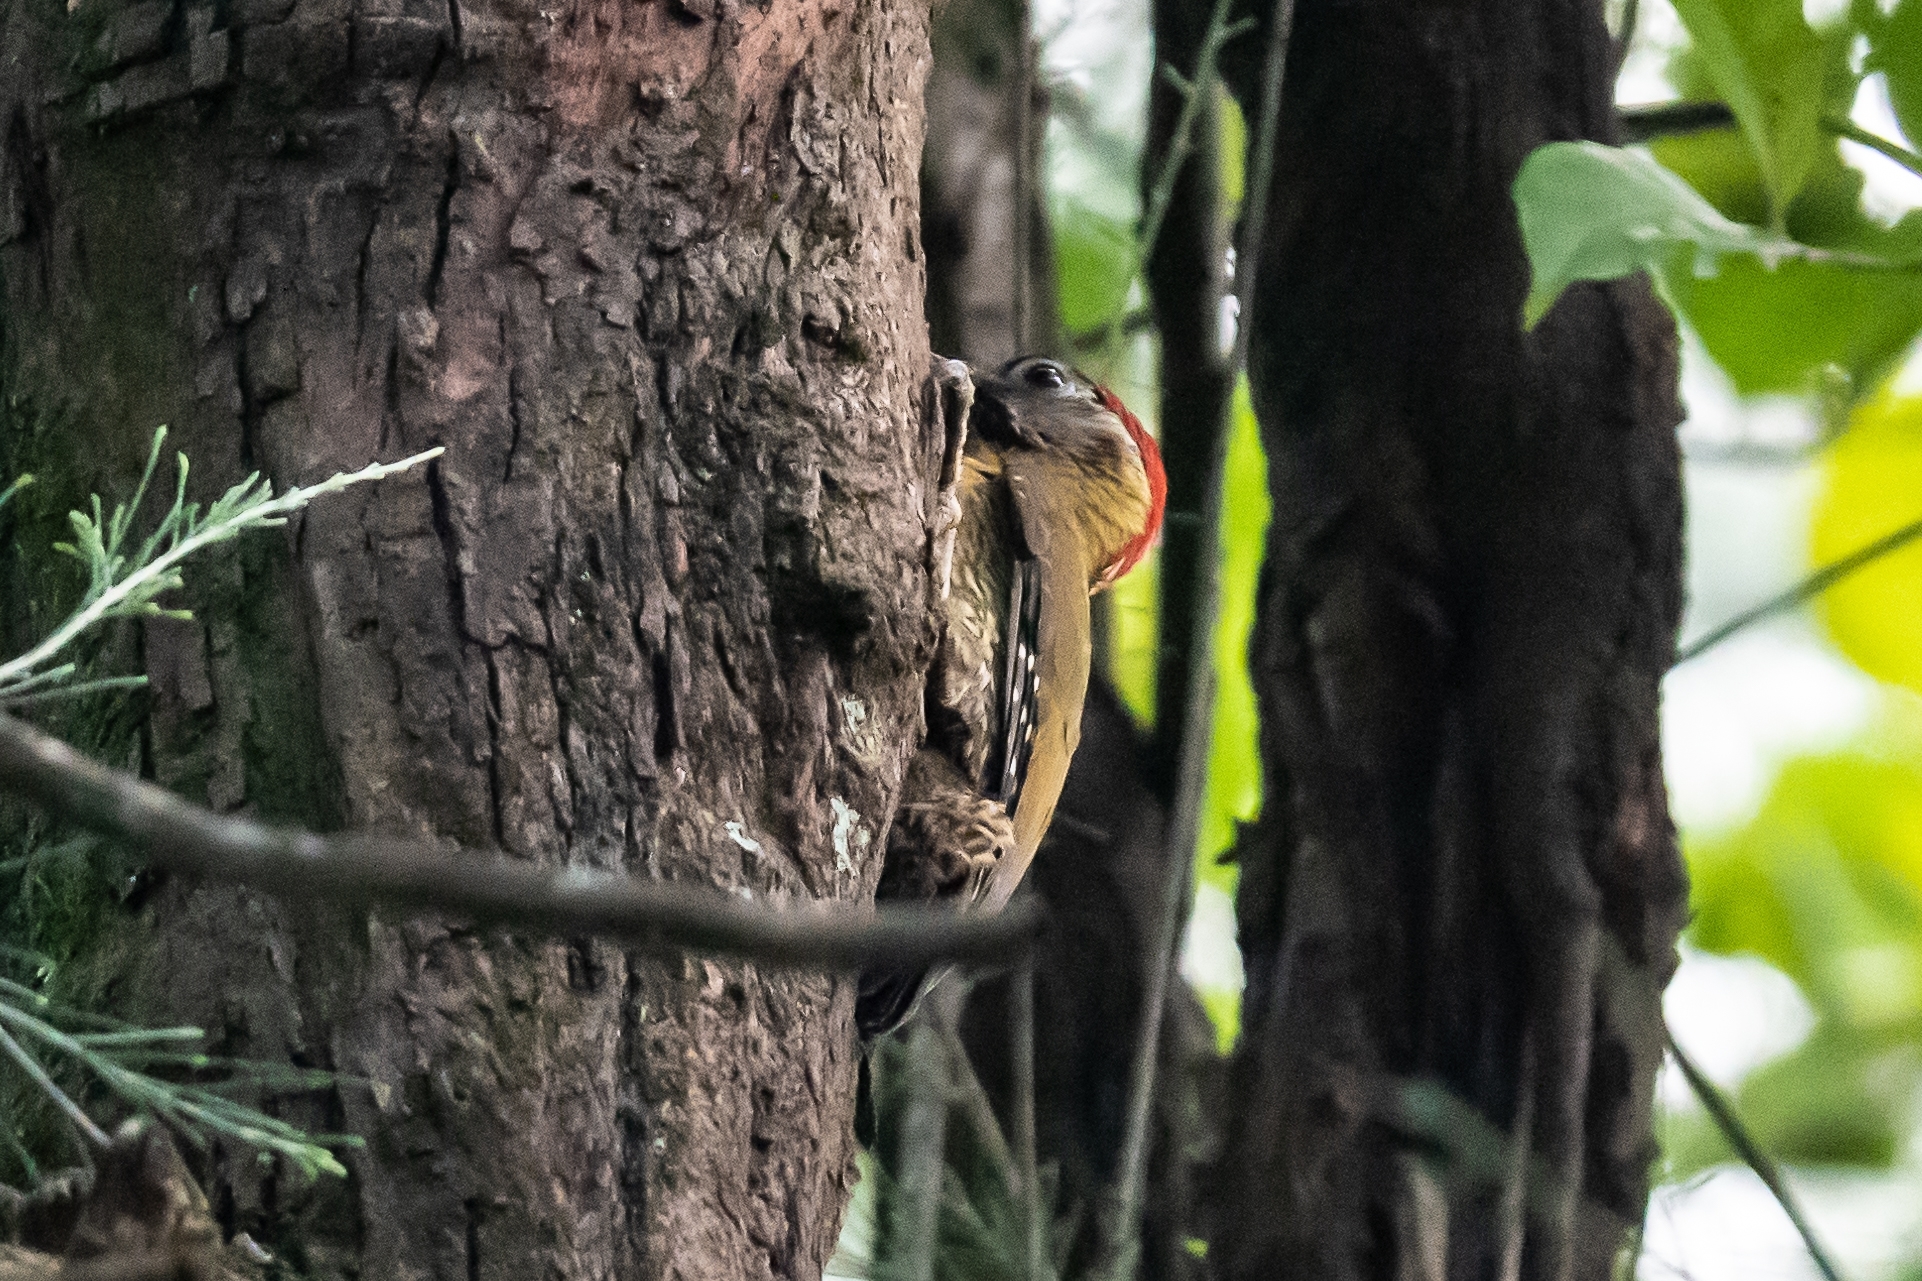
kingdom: Animalia
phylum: Chordata
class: Aves
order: Piciformes
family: Picidae
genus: Picus
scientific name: Picus vittatus
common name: Laced woodpecker
